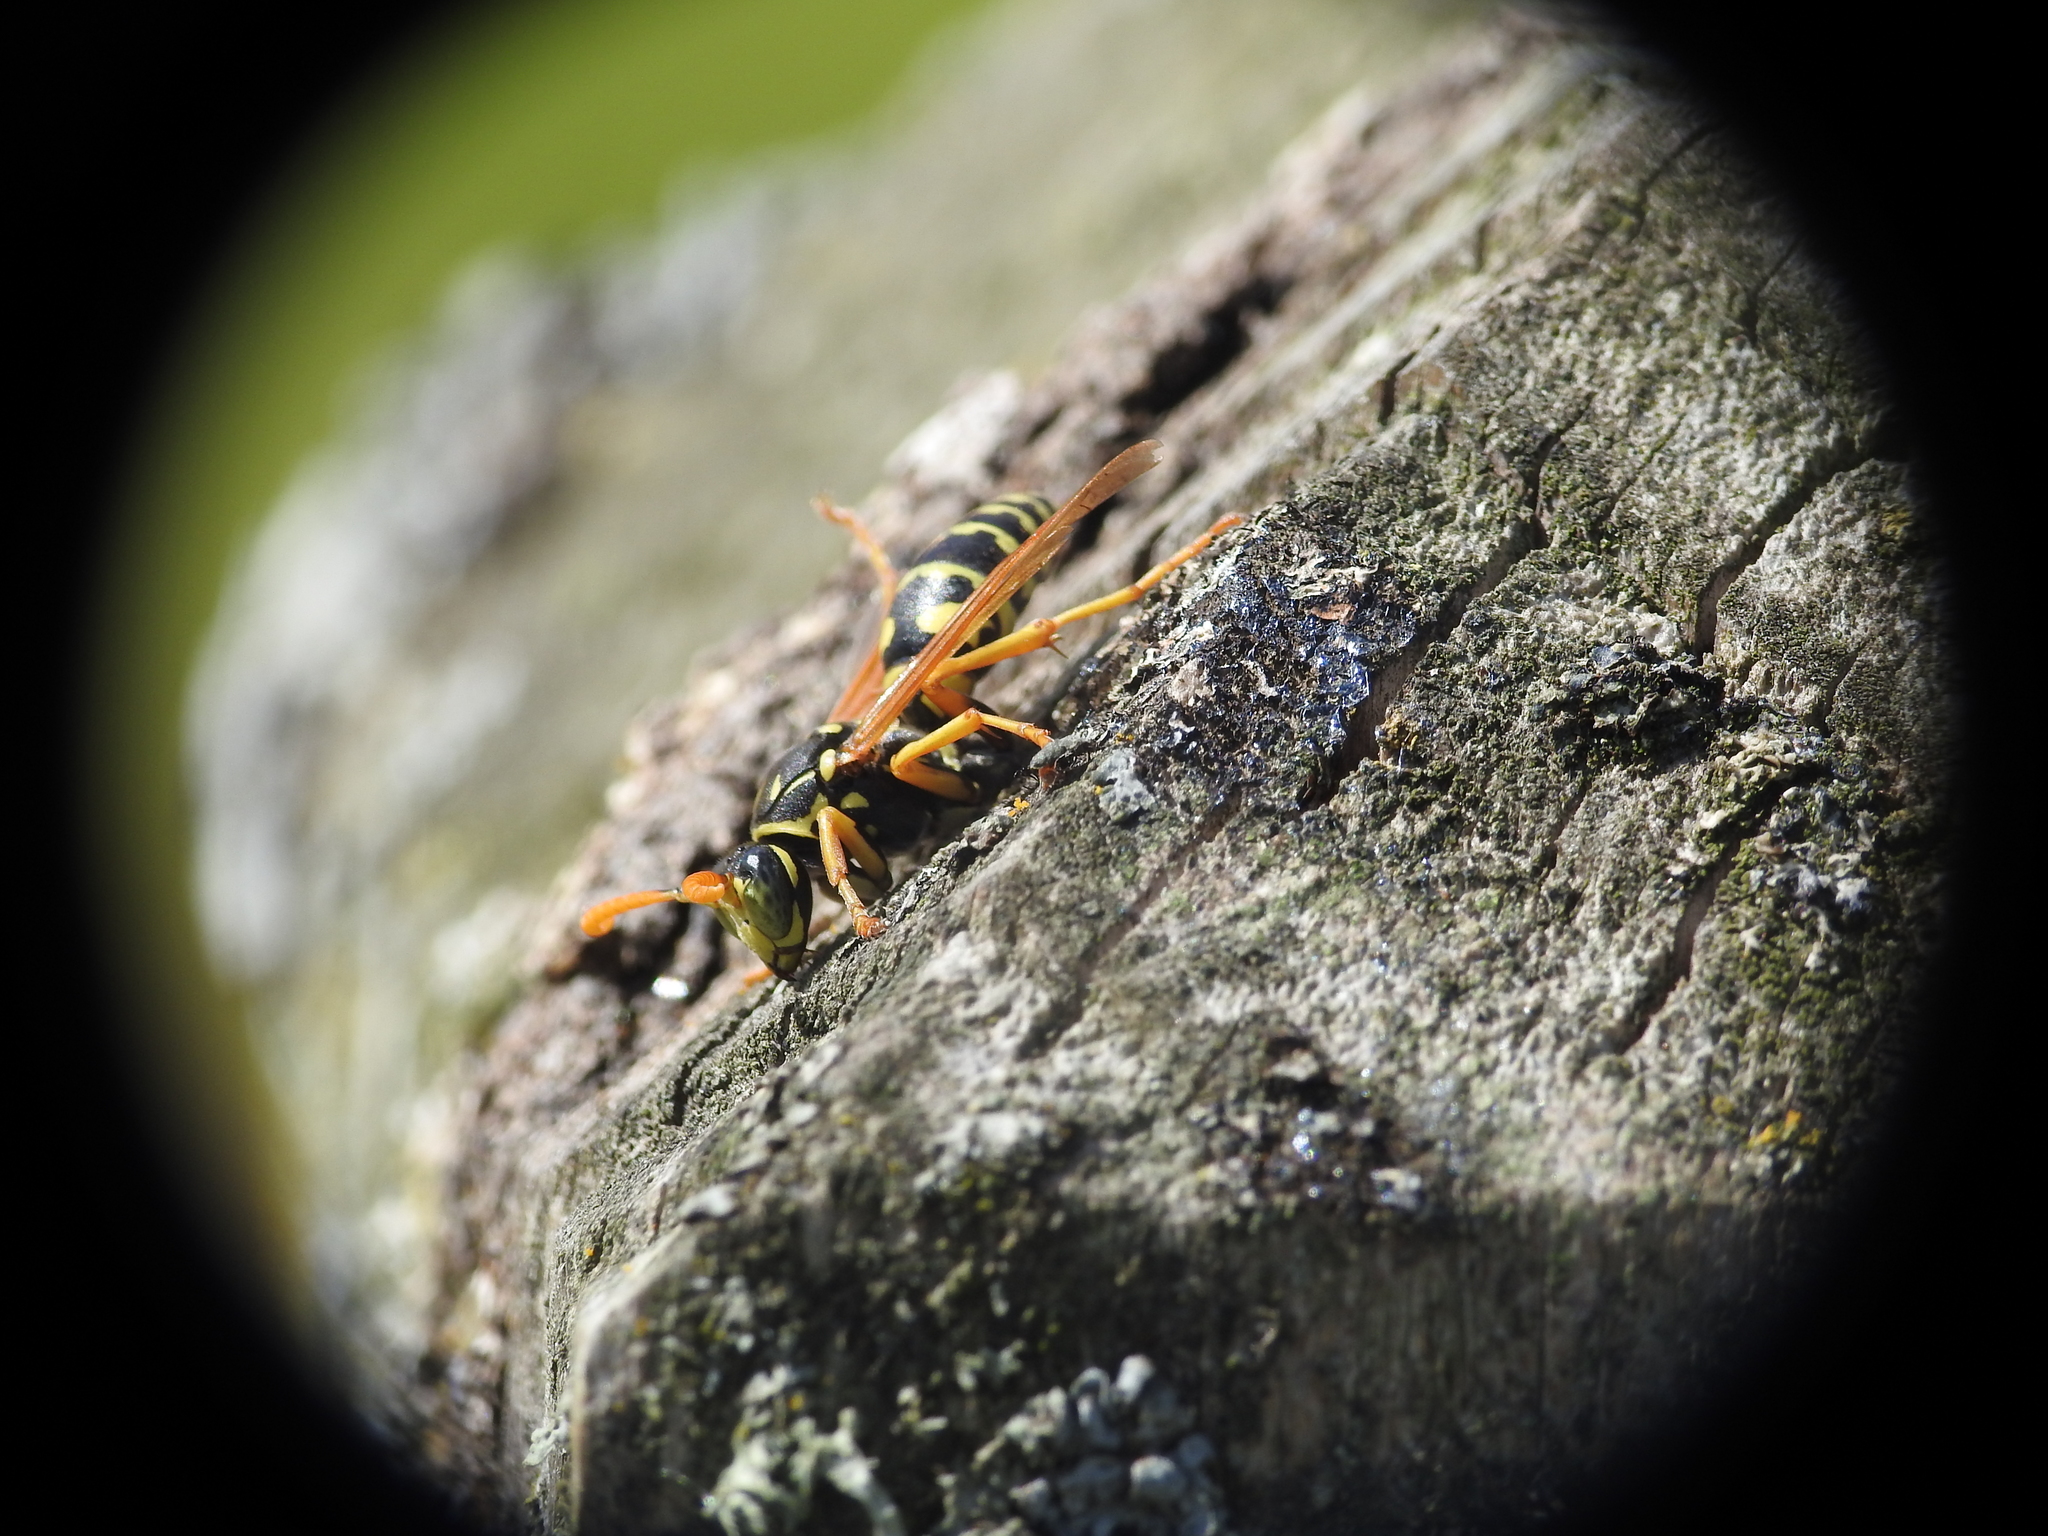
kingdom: Animalia
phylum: Arthropoda
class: Insecta
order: Hymenoptera
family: Eumenidae
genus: Polistes
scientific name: Polistes dominula
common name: Paper wasp
